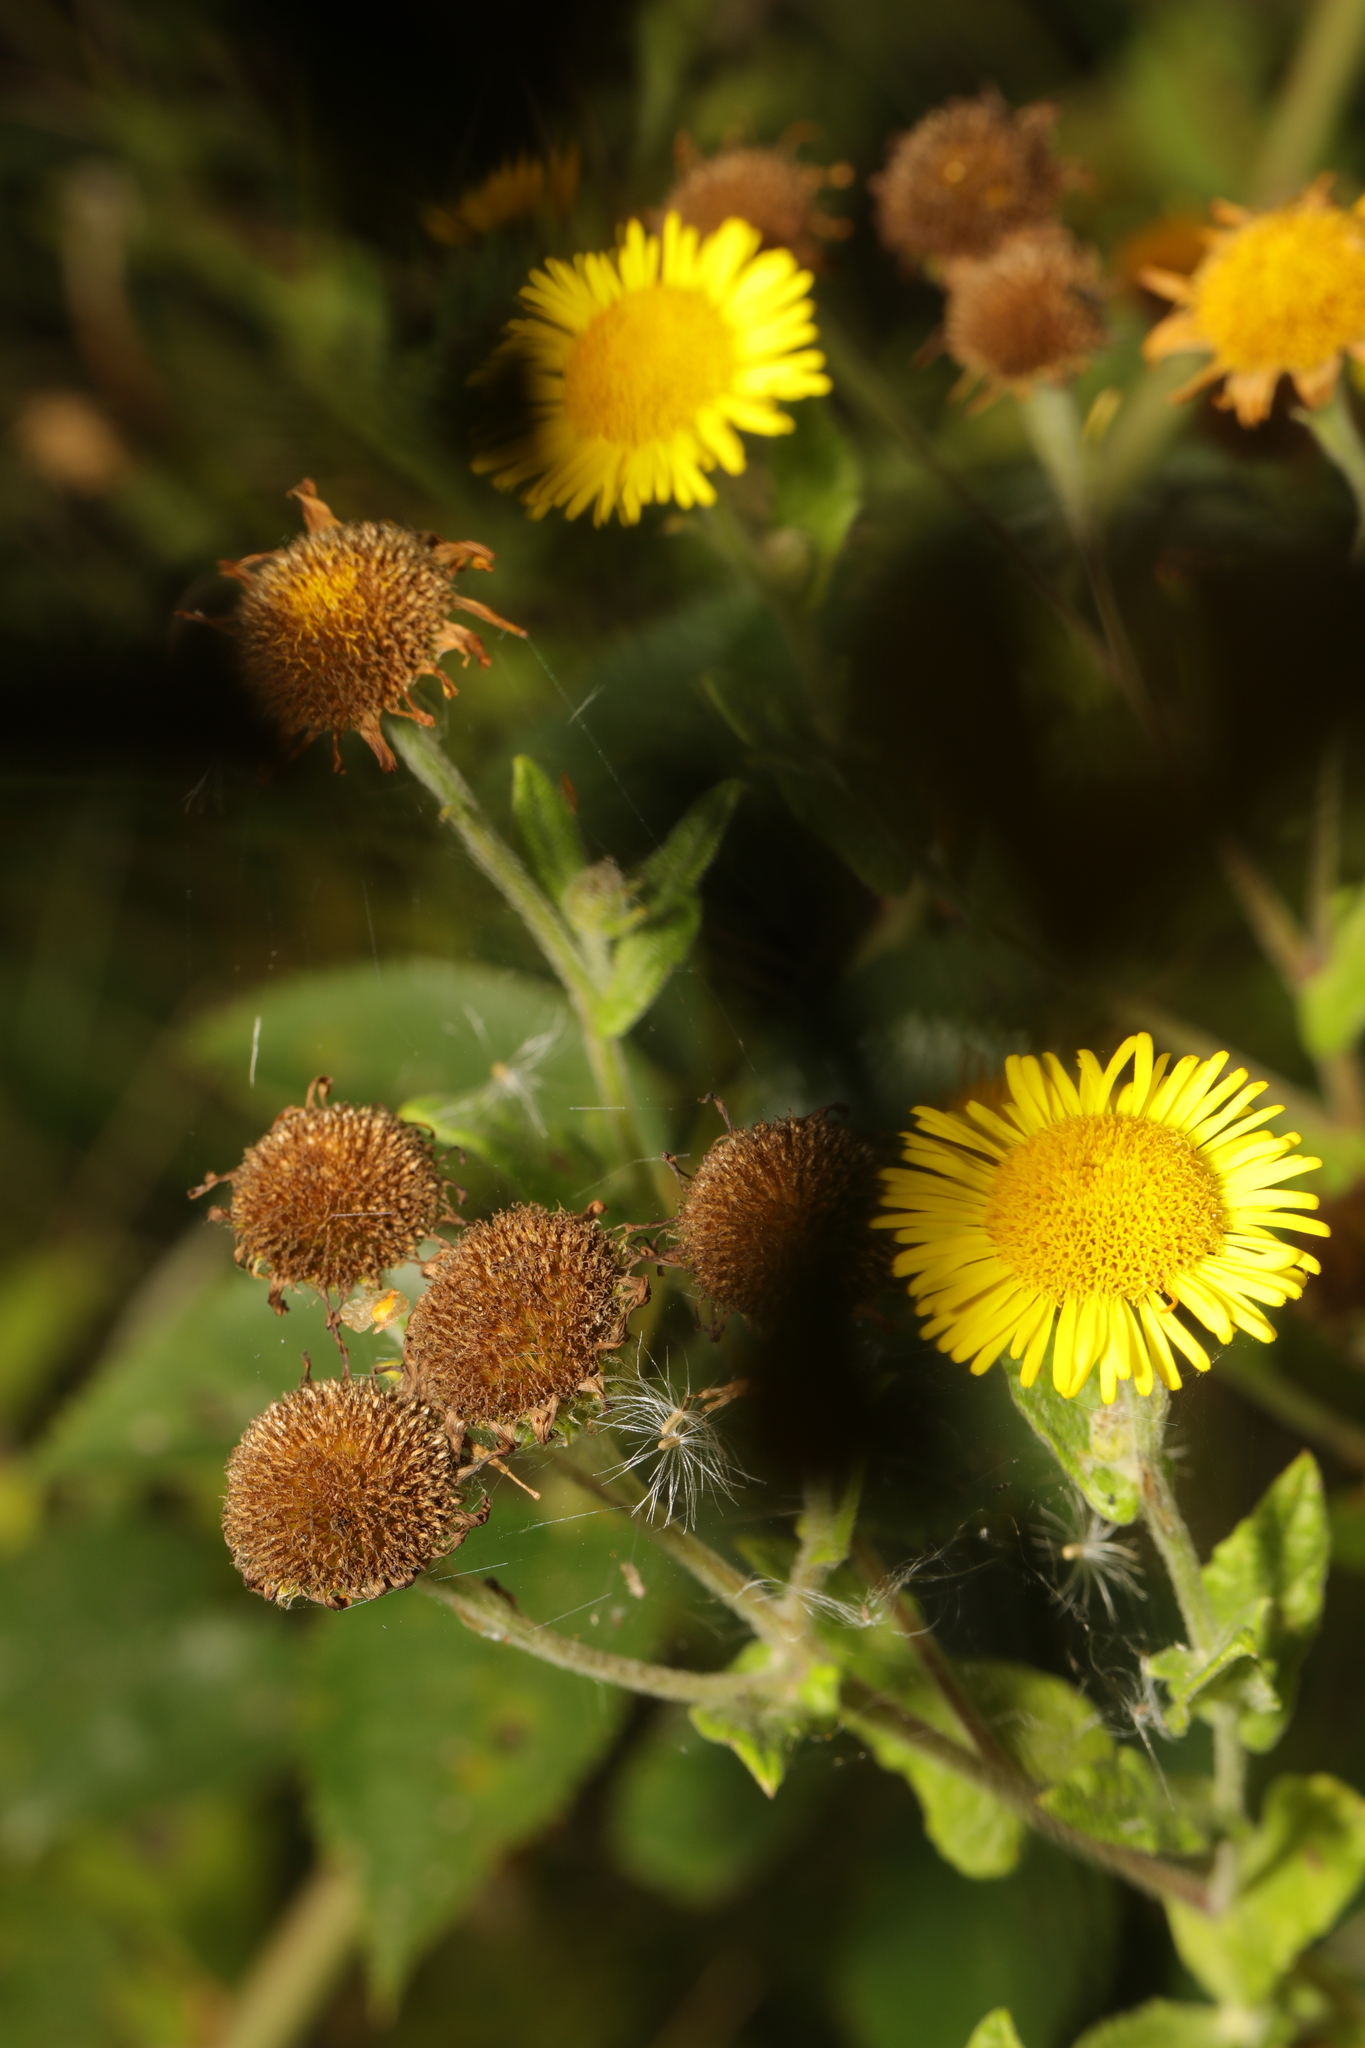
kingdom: Plantae
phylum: Tracheophyta
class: Magnoliopsida
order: Asterales
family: Asteraceae
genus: Pulicaria
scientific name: Pulicaria dysenterica
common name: Common fleabane
